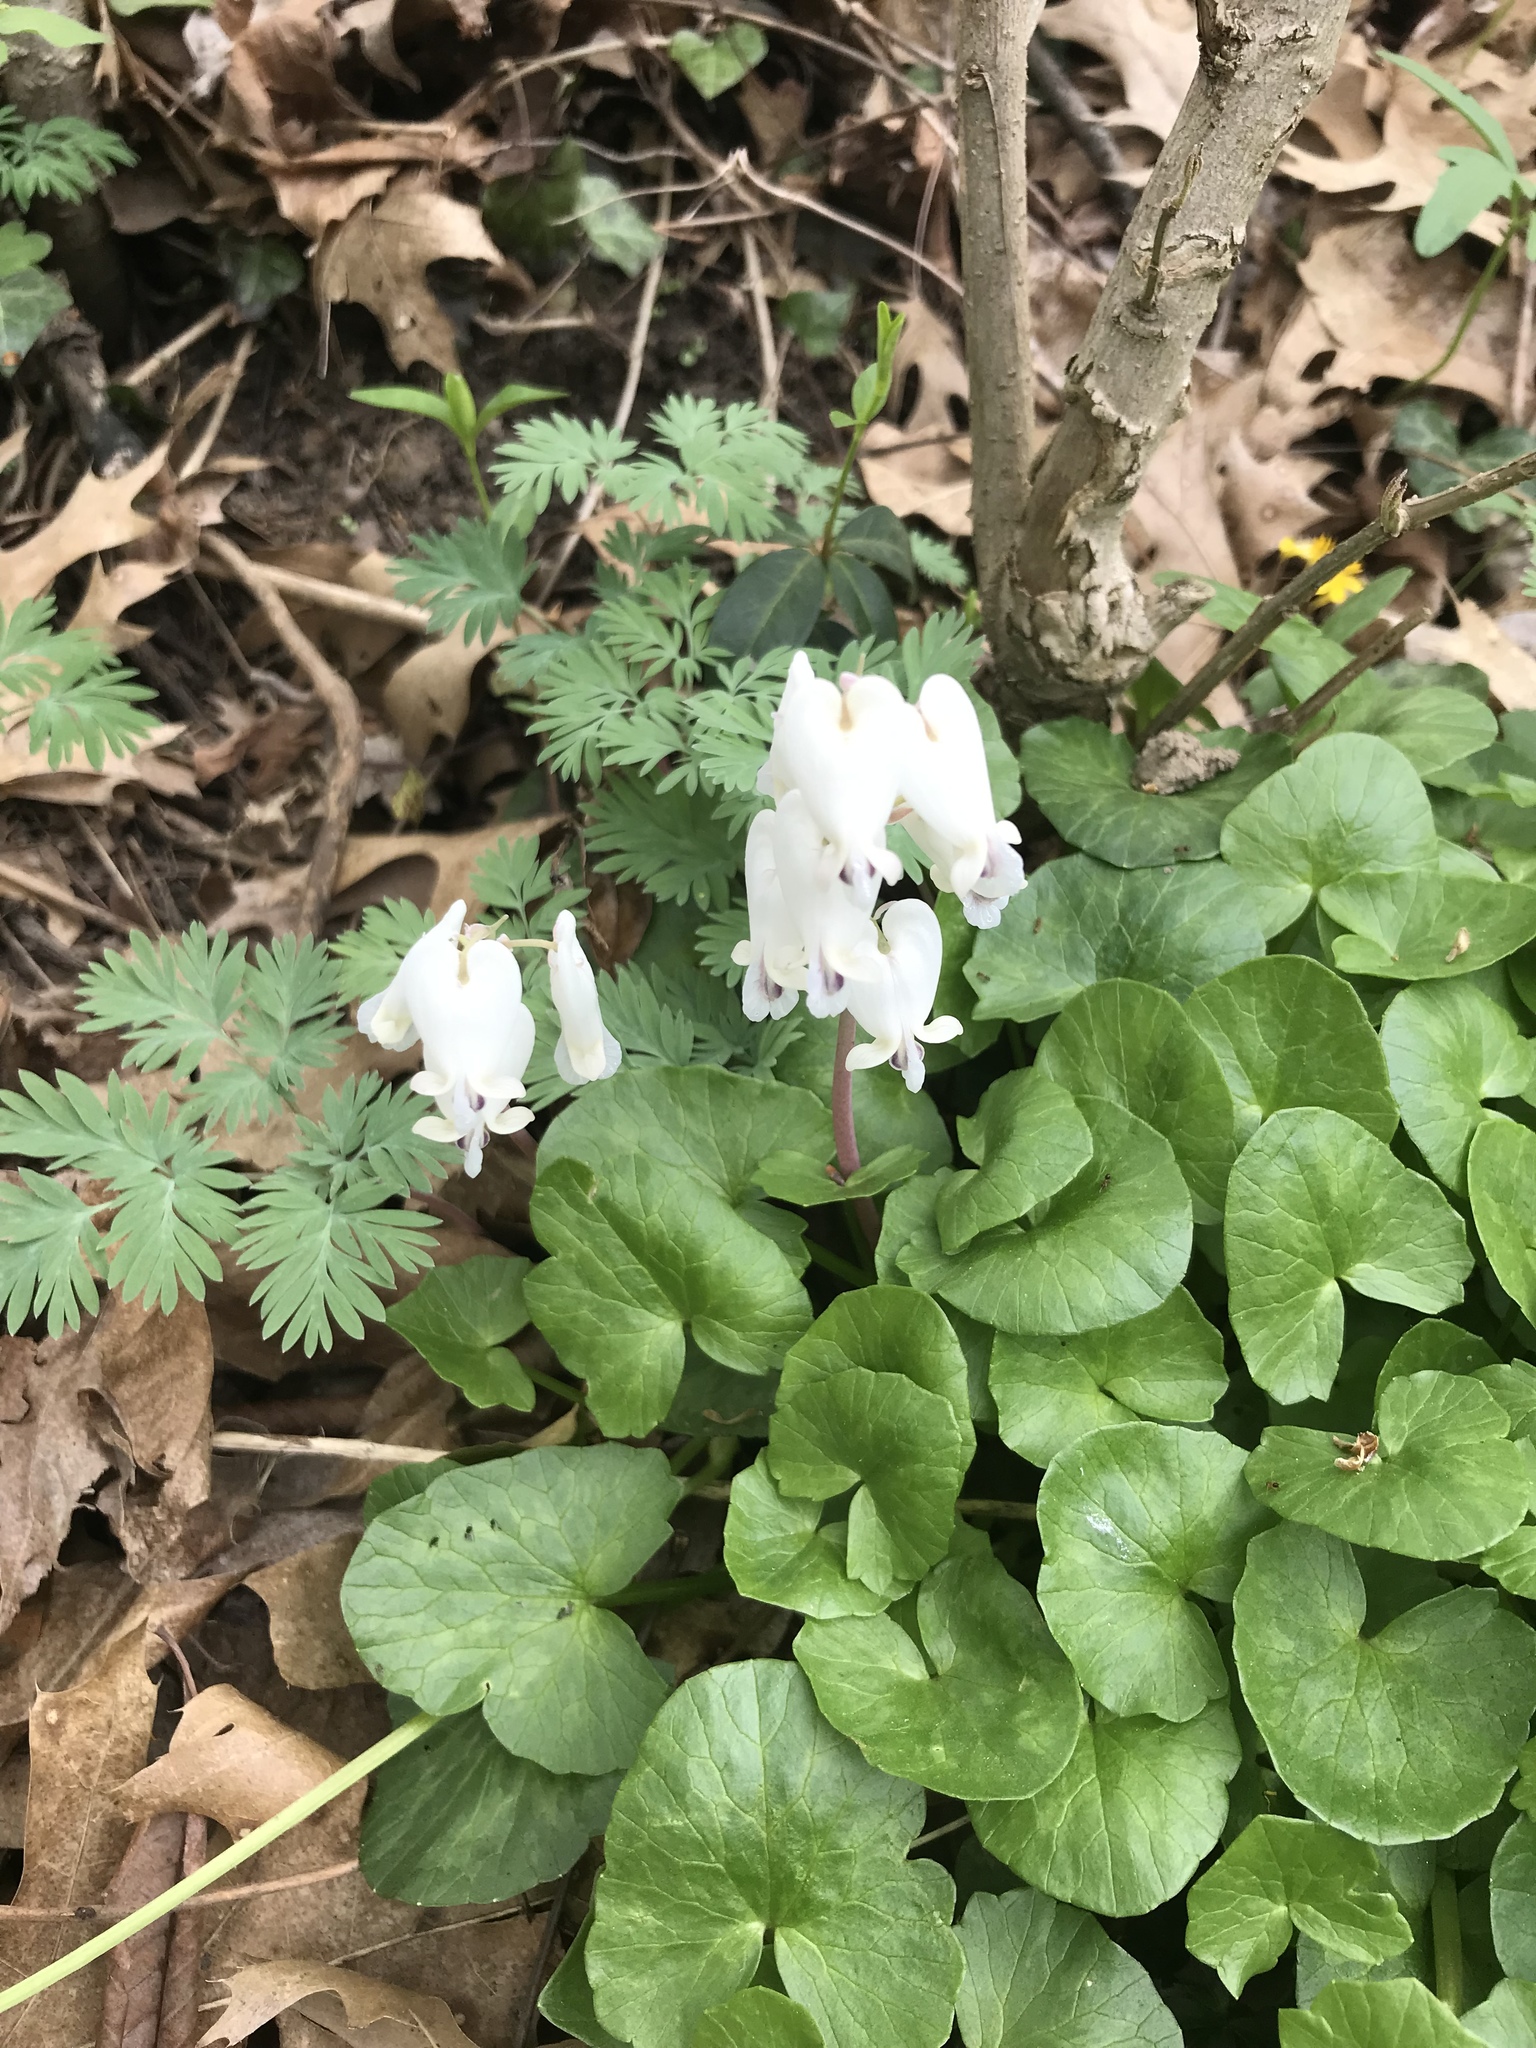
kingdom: Plantae
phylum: Tracheophyta
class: Magnoliopsida
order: Ranunculales
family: Papaveraceae
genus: Dicentra
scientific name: Dicentra canadensis
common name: Squirrel-corn
